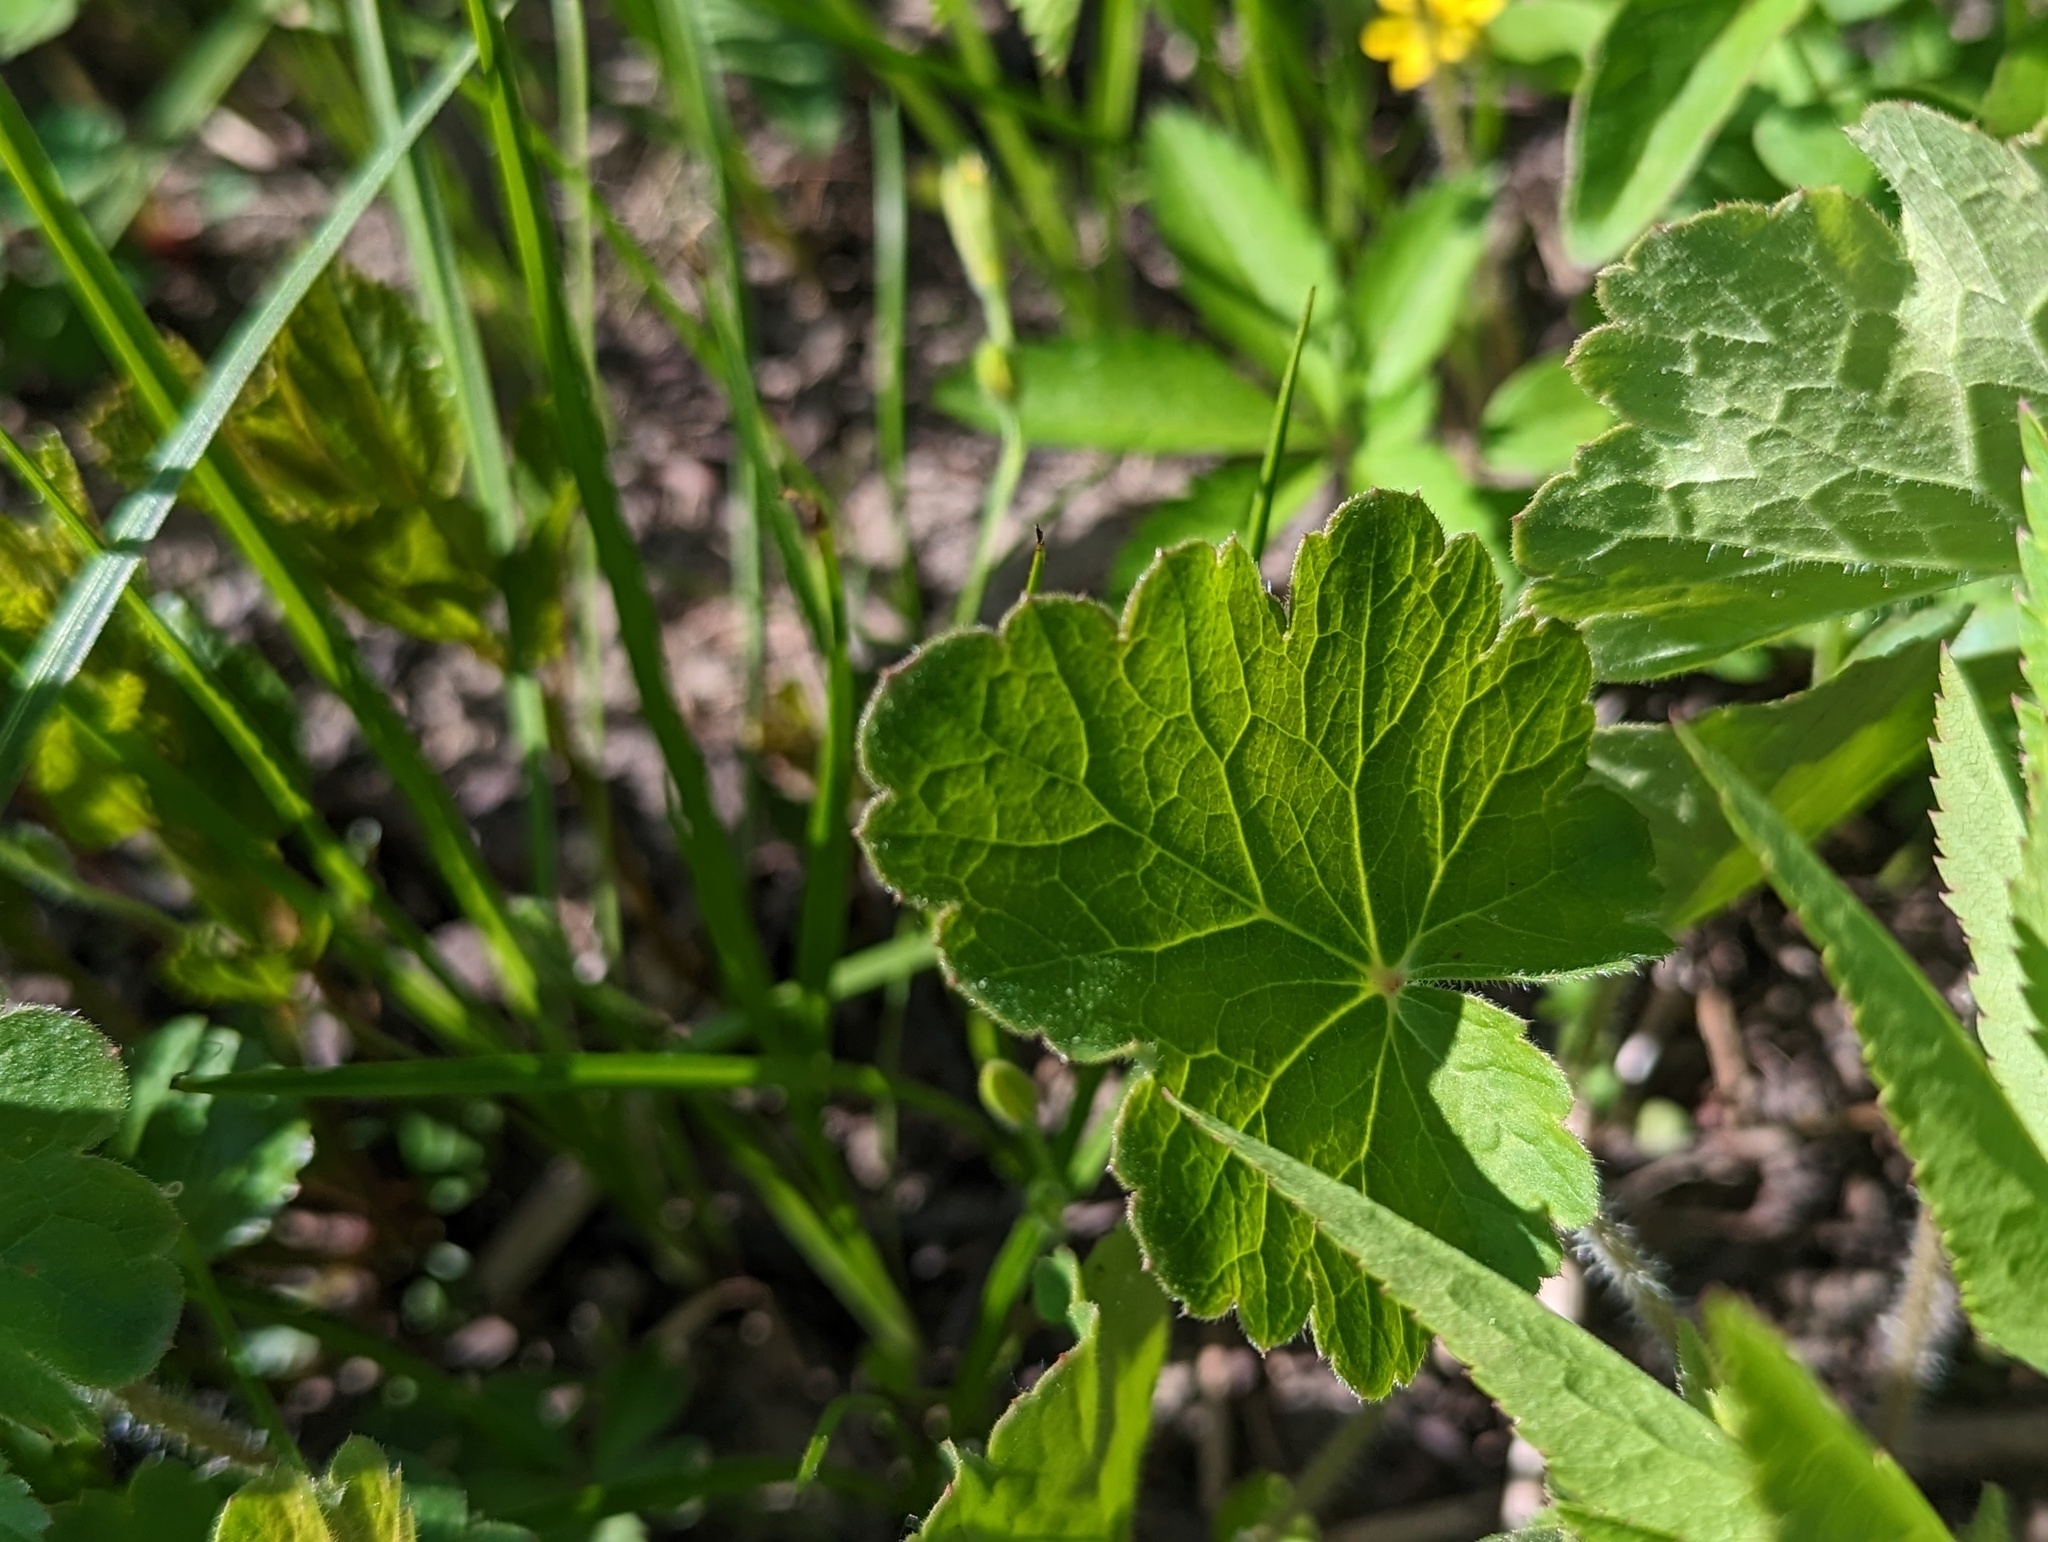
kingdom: Plantae
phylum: Tracheophyta
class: Magnoliopsida
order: Saxifragales
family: Saxifragaceae
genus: Heuchera
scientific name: Heuchera richardsonii
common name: Richardson's alumroot
